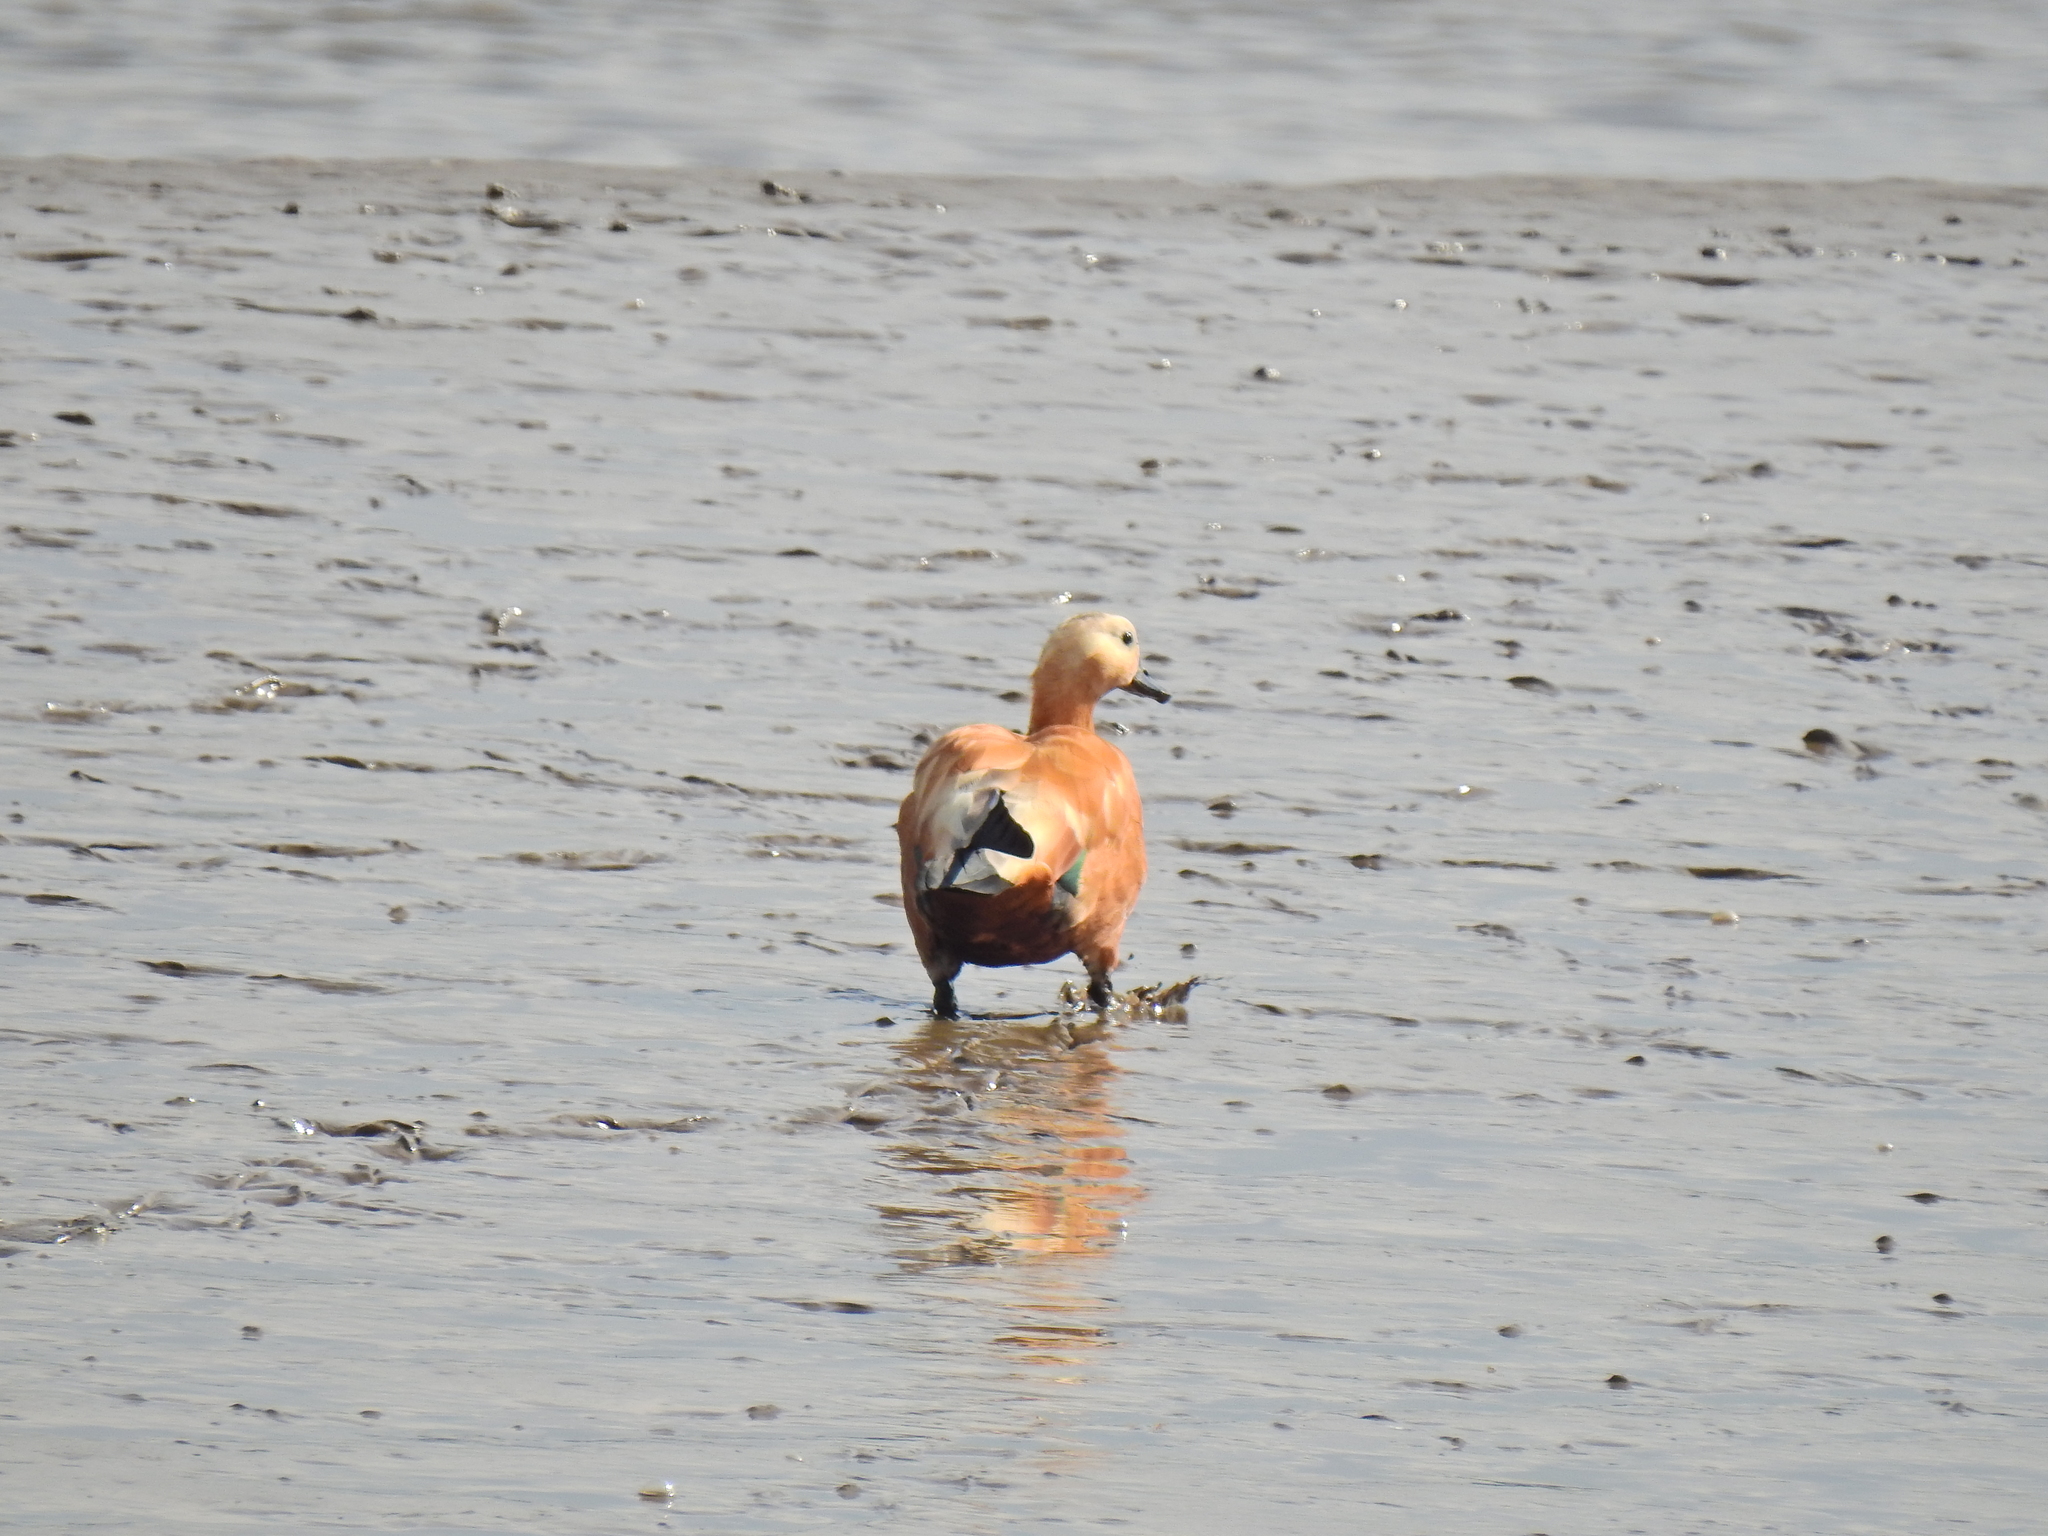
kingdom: Animalia
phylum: Chordata
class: Aves
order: Anseriformes
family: Anatidae
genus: Tadorna
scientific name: Tadorna ferruginea
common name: Ruddy shelduck
